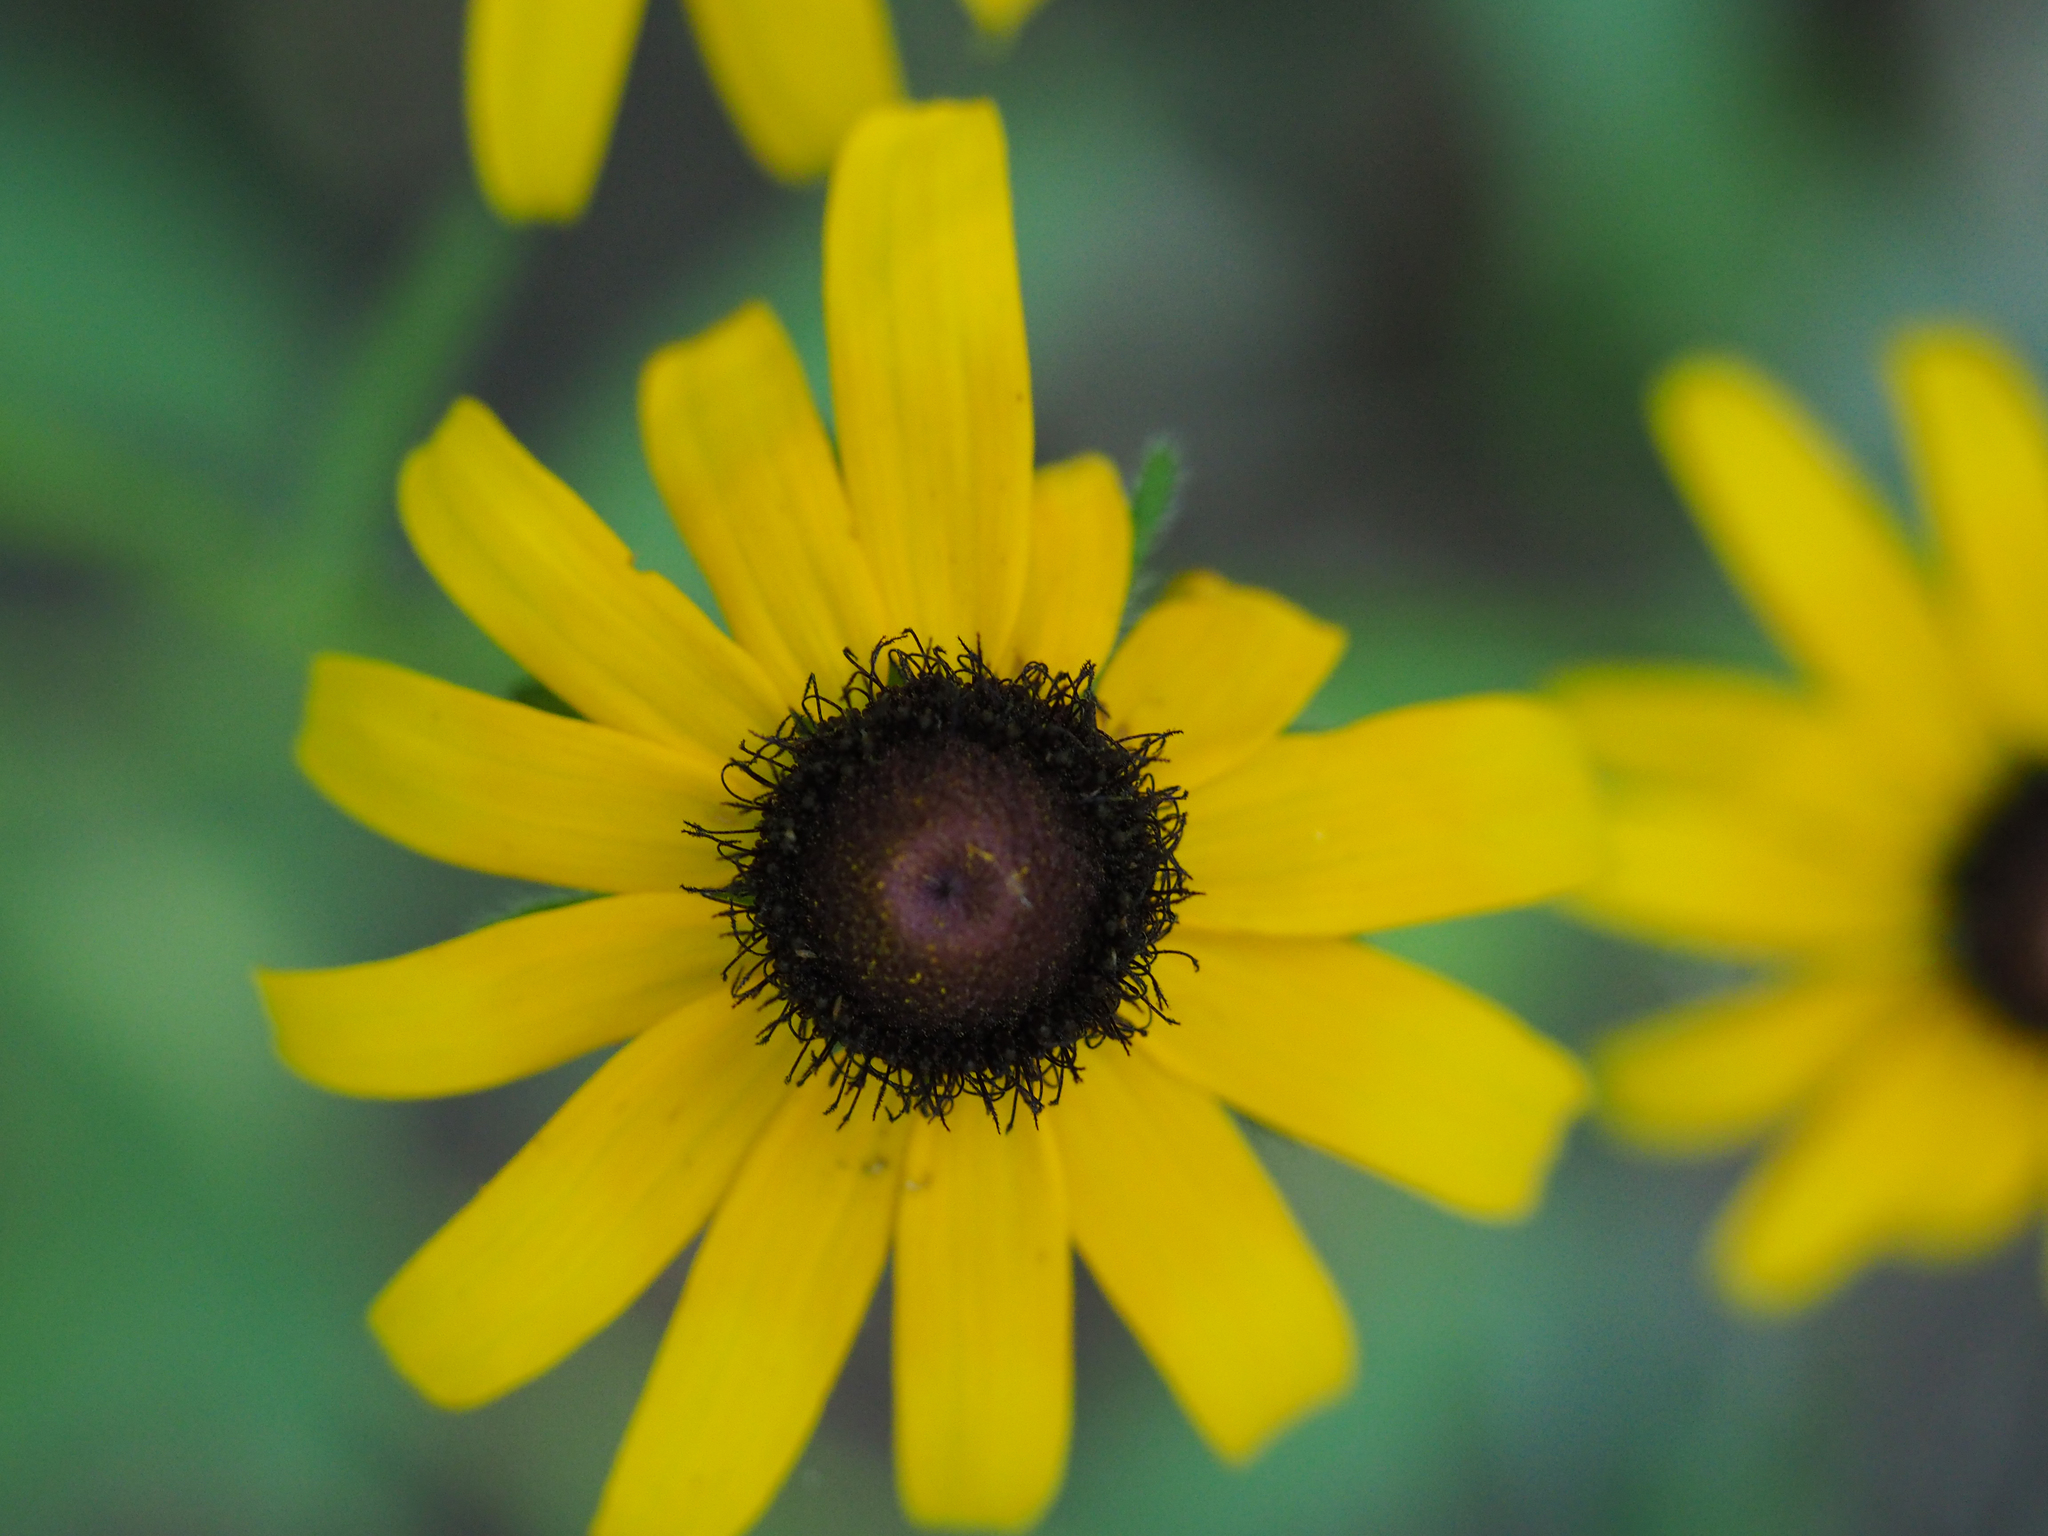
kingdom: Plantae
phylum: Tracheophyta
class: Magnoliopsida
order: Asterales
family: Asteraceae
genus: Rudbeckia
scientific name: Rudbeckia hirta
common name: Black-eyed-susan
